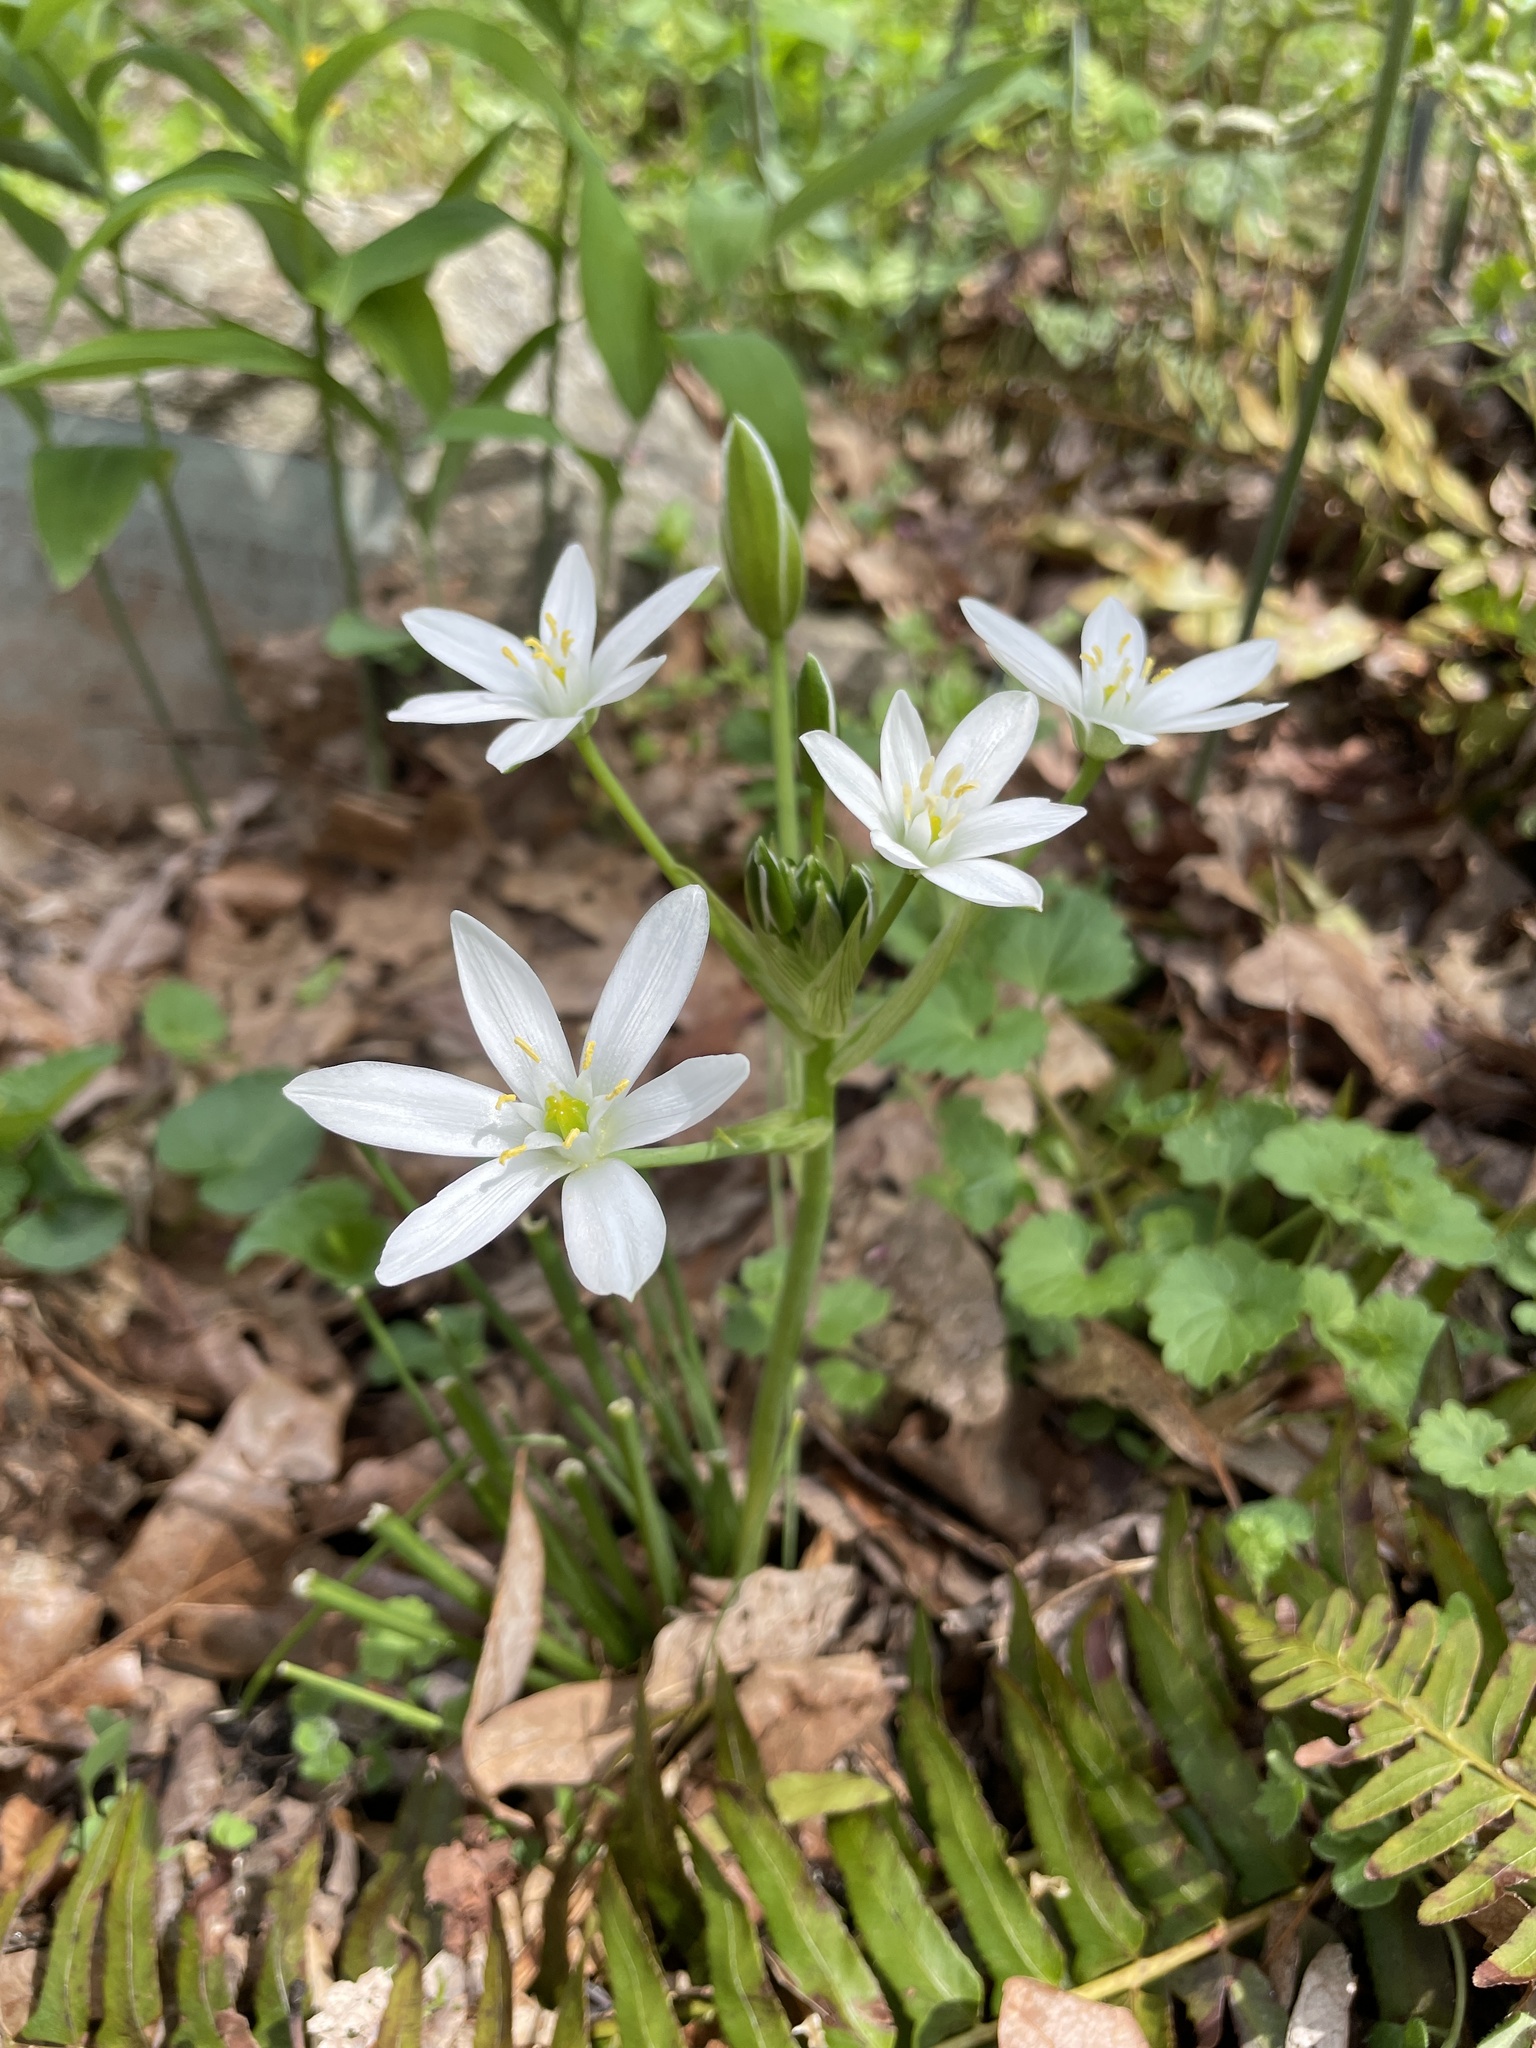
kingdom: Plantae
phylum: Tracheophyta
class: Liliopsida
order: Asparagales
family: Asparagaceae
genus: Ornithogalum
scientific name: Ornithogalum umbellatum
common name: Garden star-of-bethlehem
